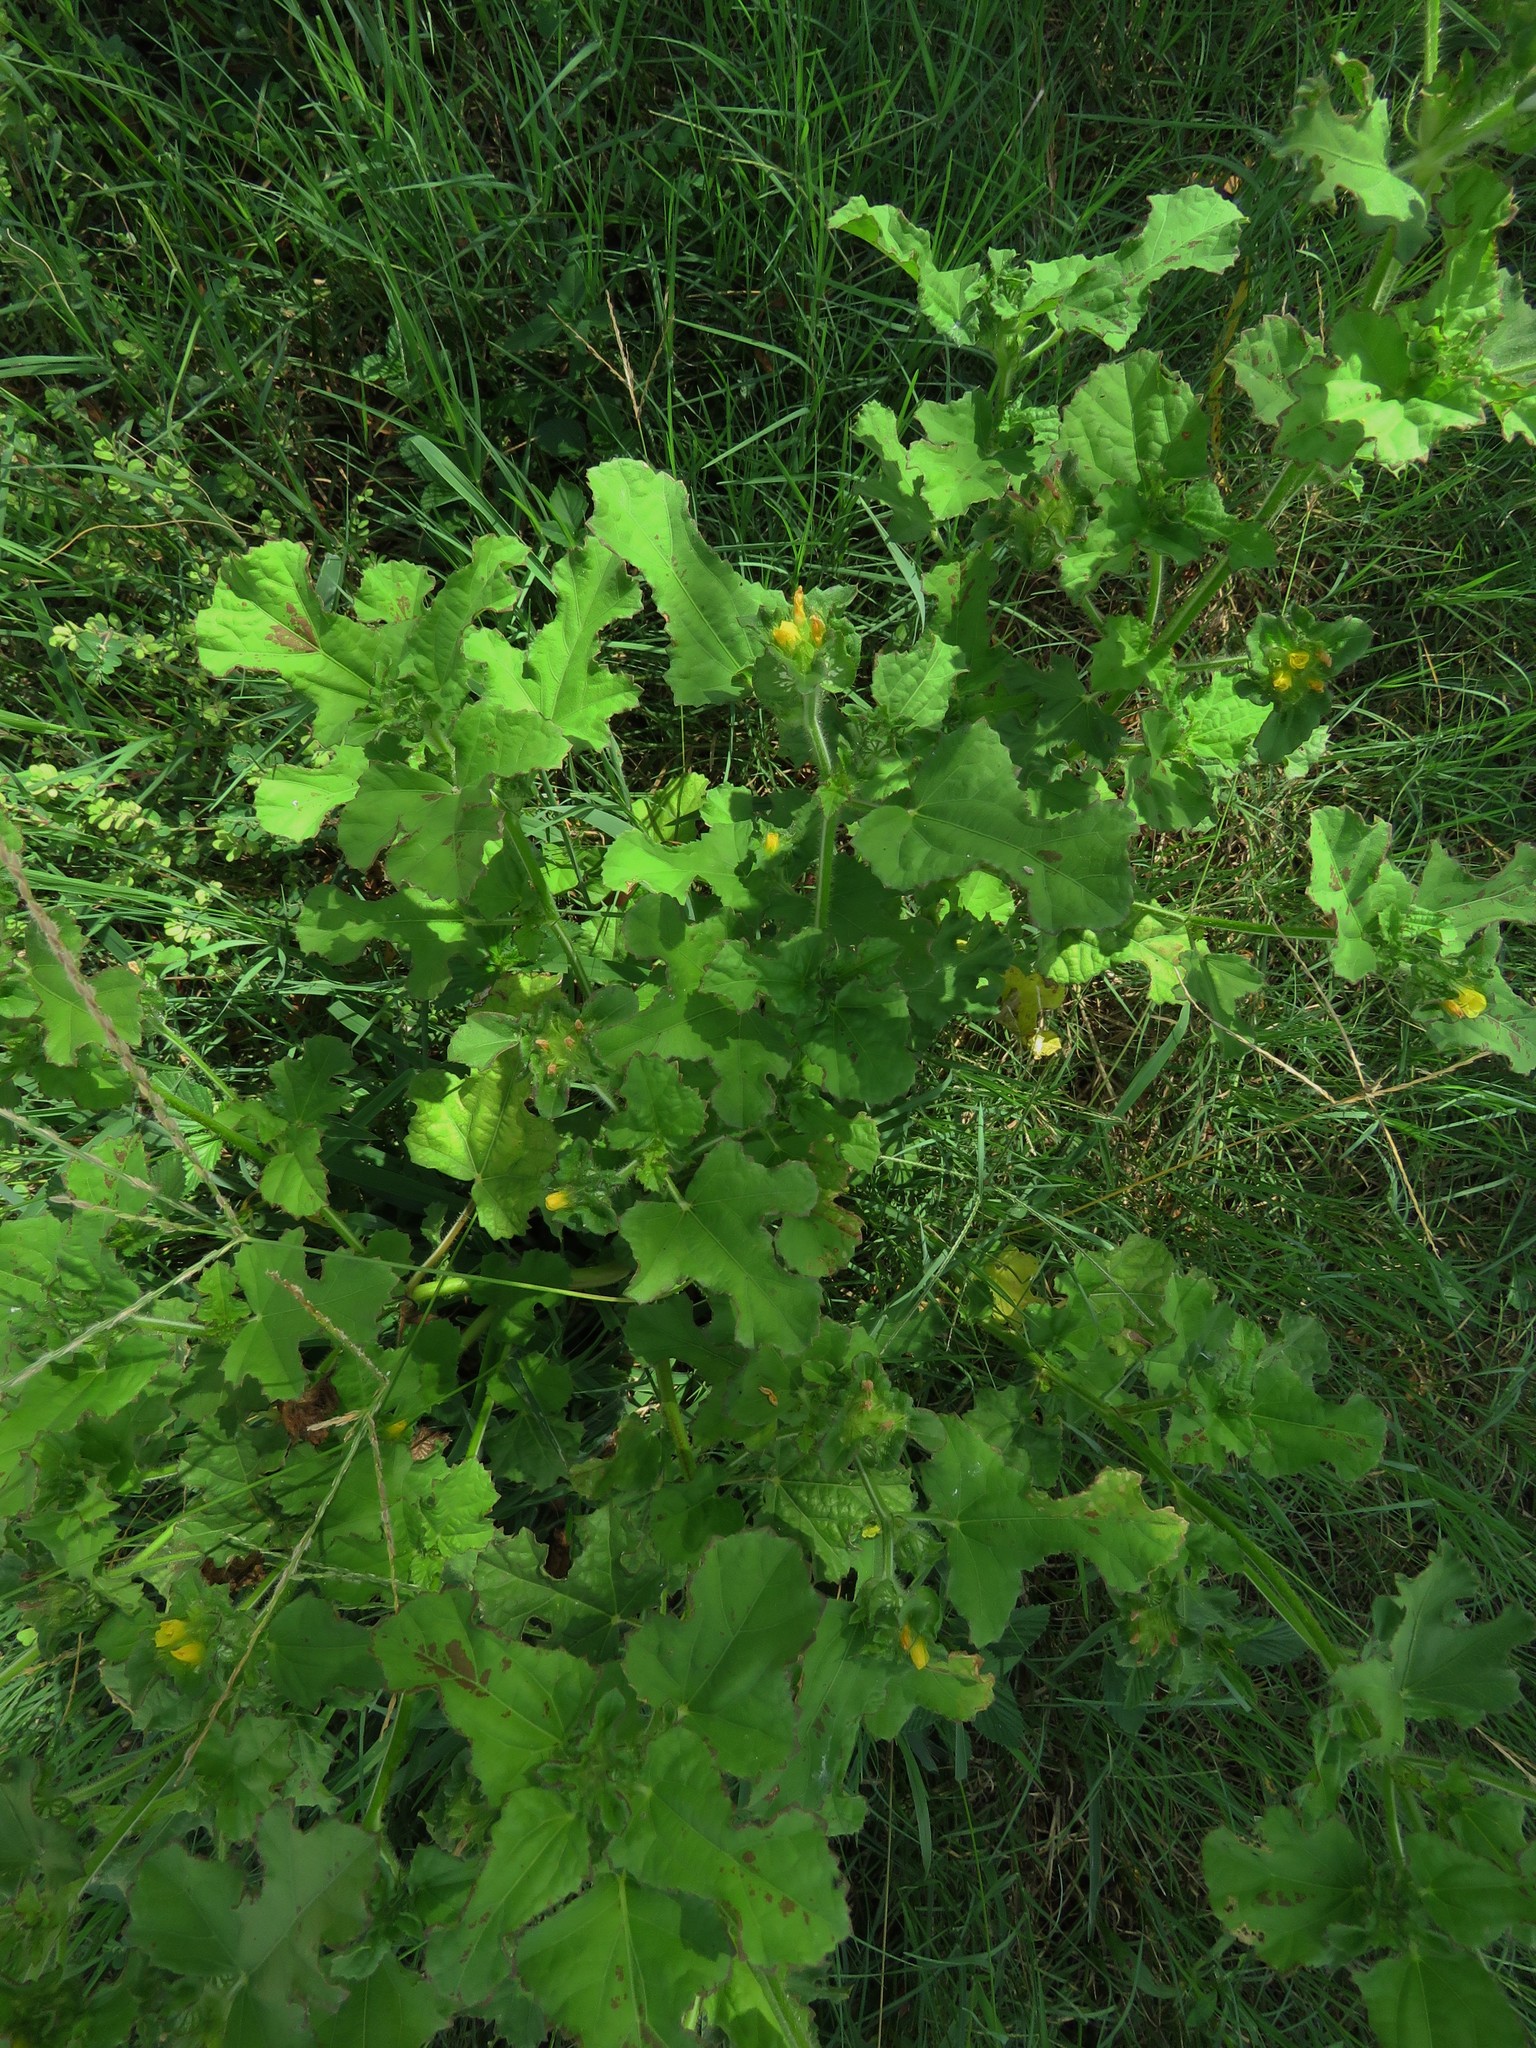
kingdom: Plantae
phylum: Tracheophyta
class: Magnoliopsida
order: Malvales
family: Malvaceae
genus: Malachra
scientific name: Malachra capitata
